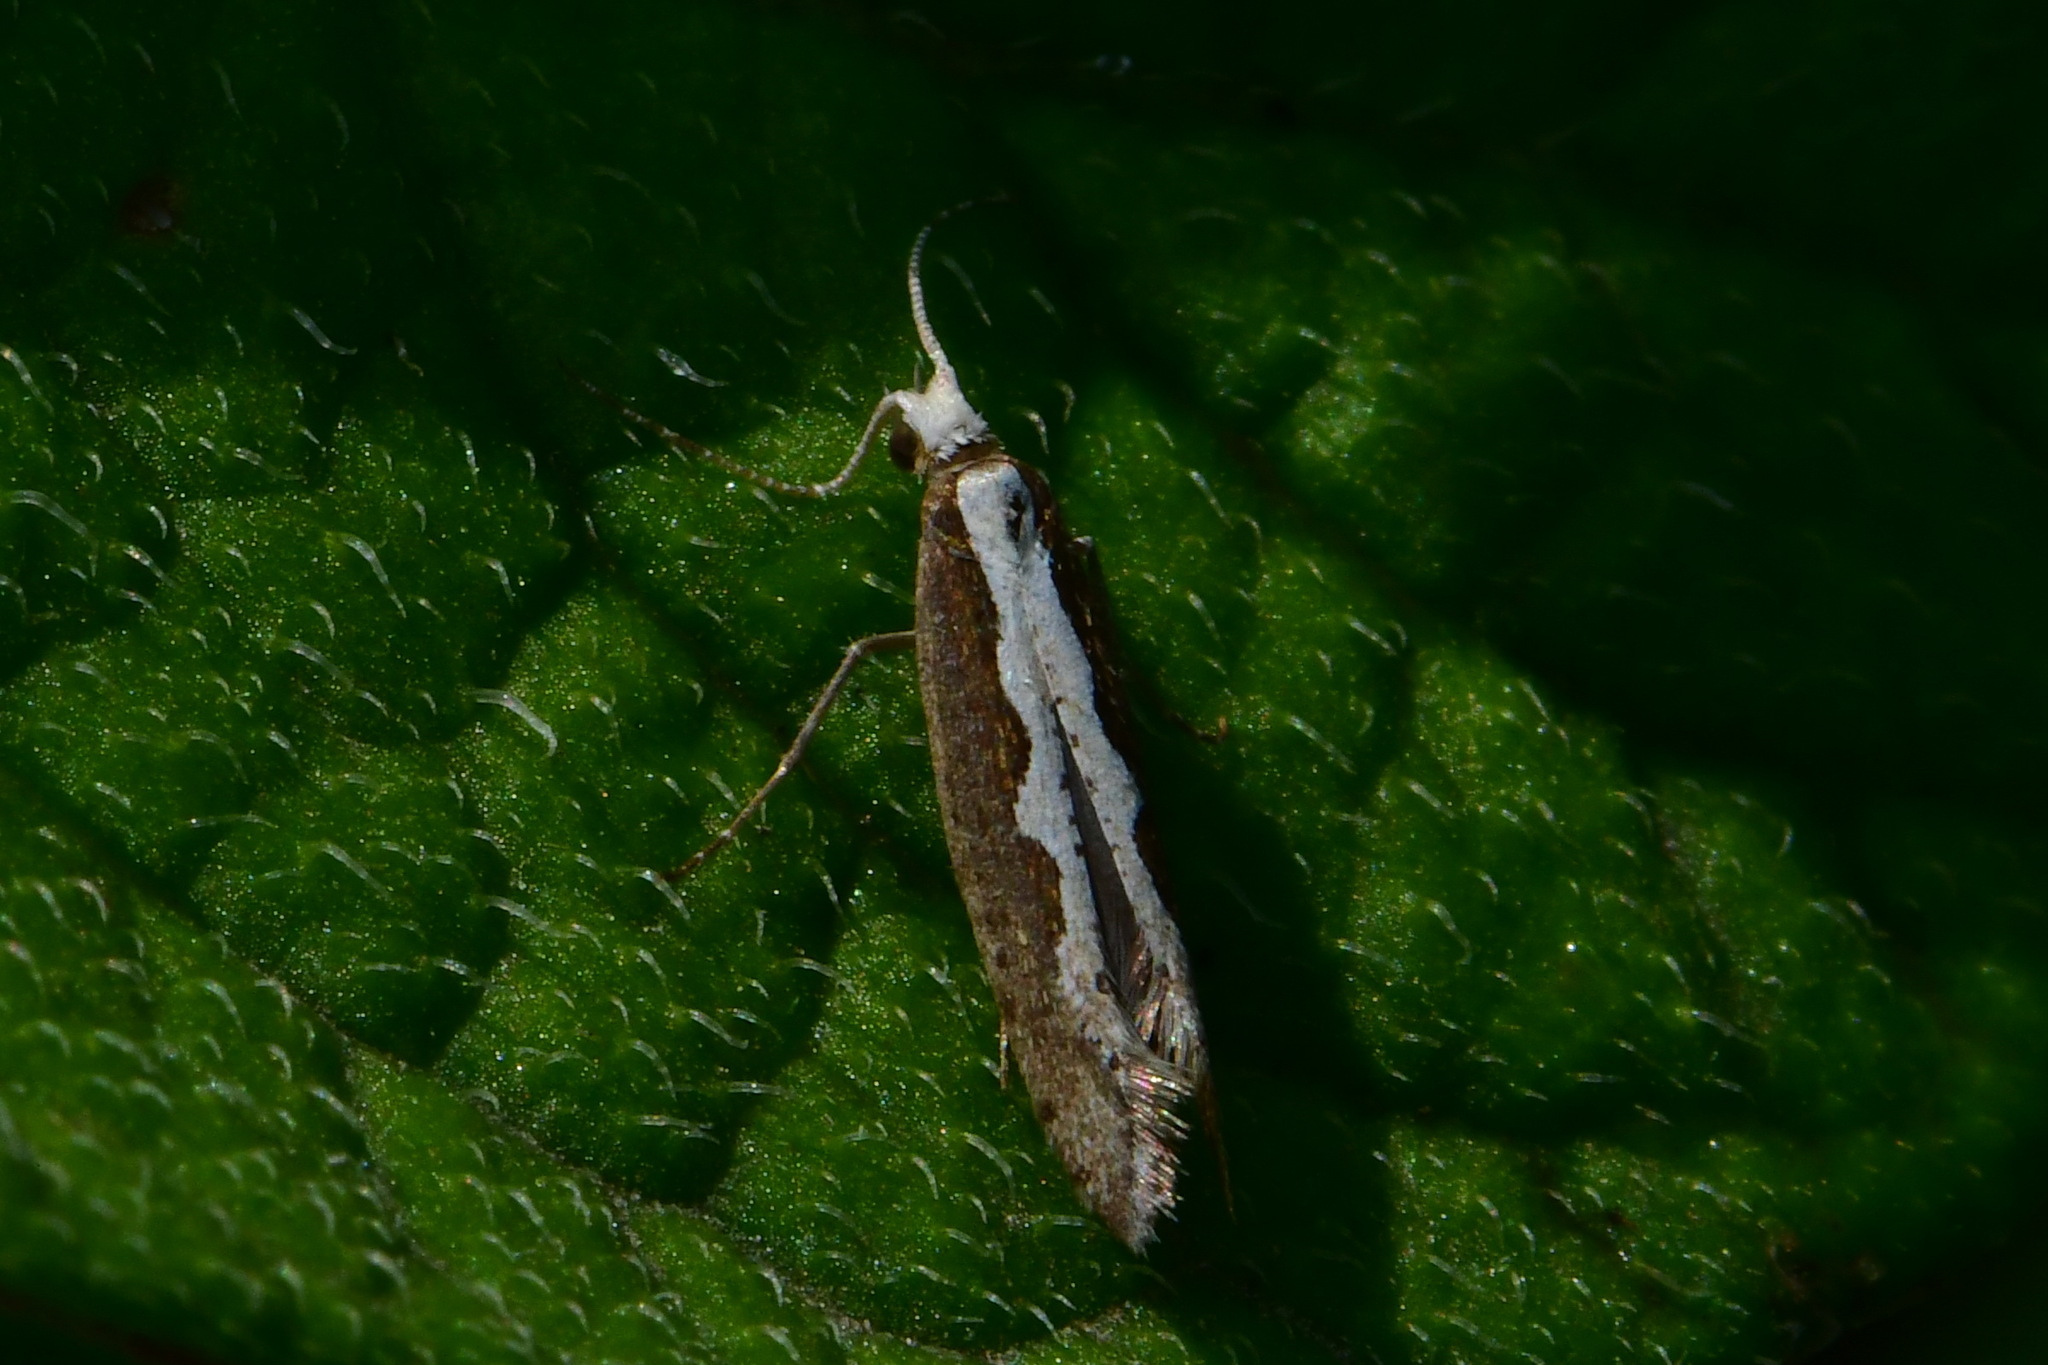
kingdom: Animalia
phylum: Arthropoda
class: Insecta
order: Lepidoptera
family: Plutellidae
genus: Plutella
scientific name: Plutella xylostella
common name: Diamond-back moth
